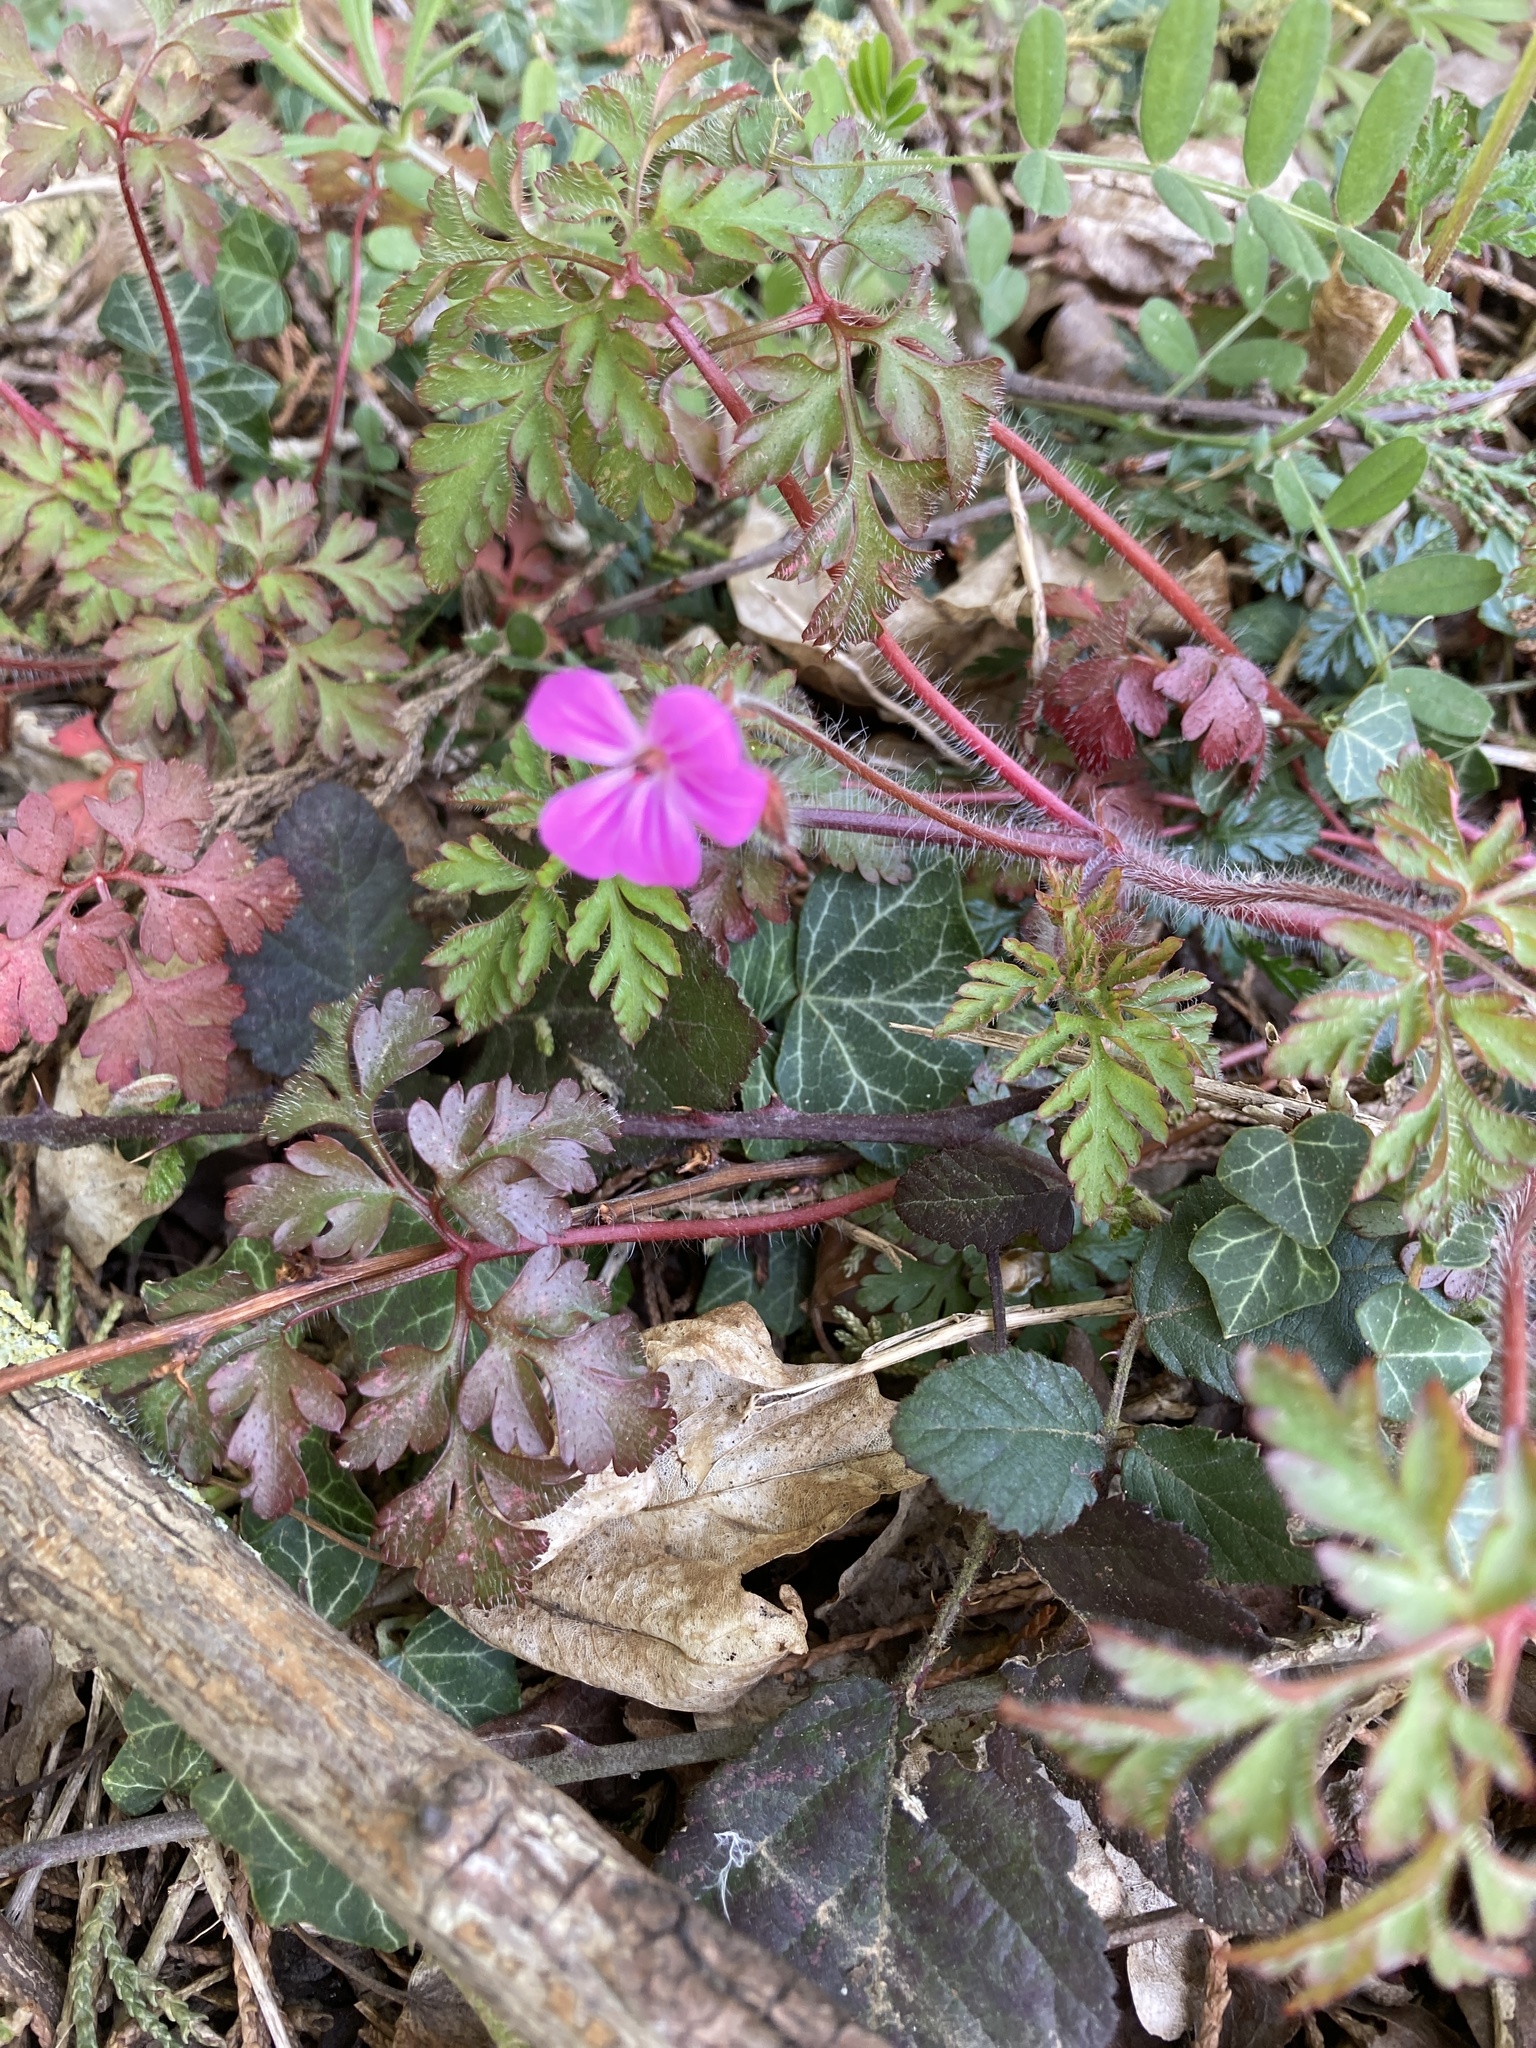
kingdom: Plantae
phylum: Tracheophyta
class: Magnoliopsida
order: Geraniales
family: Geraniaceae
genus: Geranium
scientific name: Geranium robertianum
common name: Herb-robert
